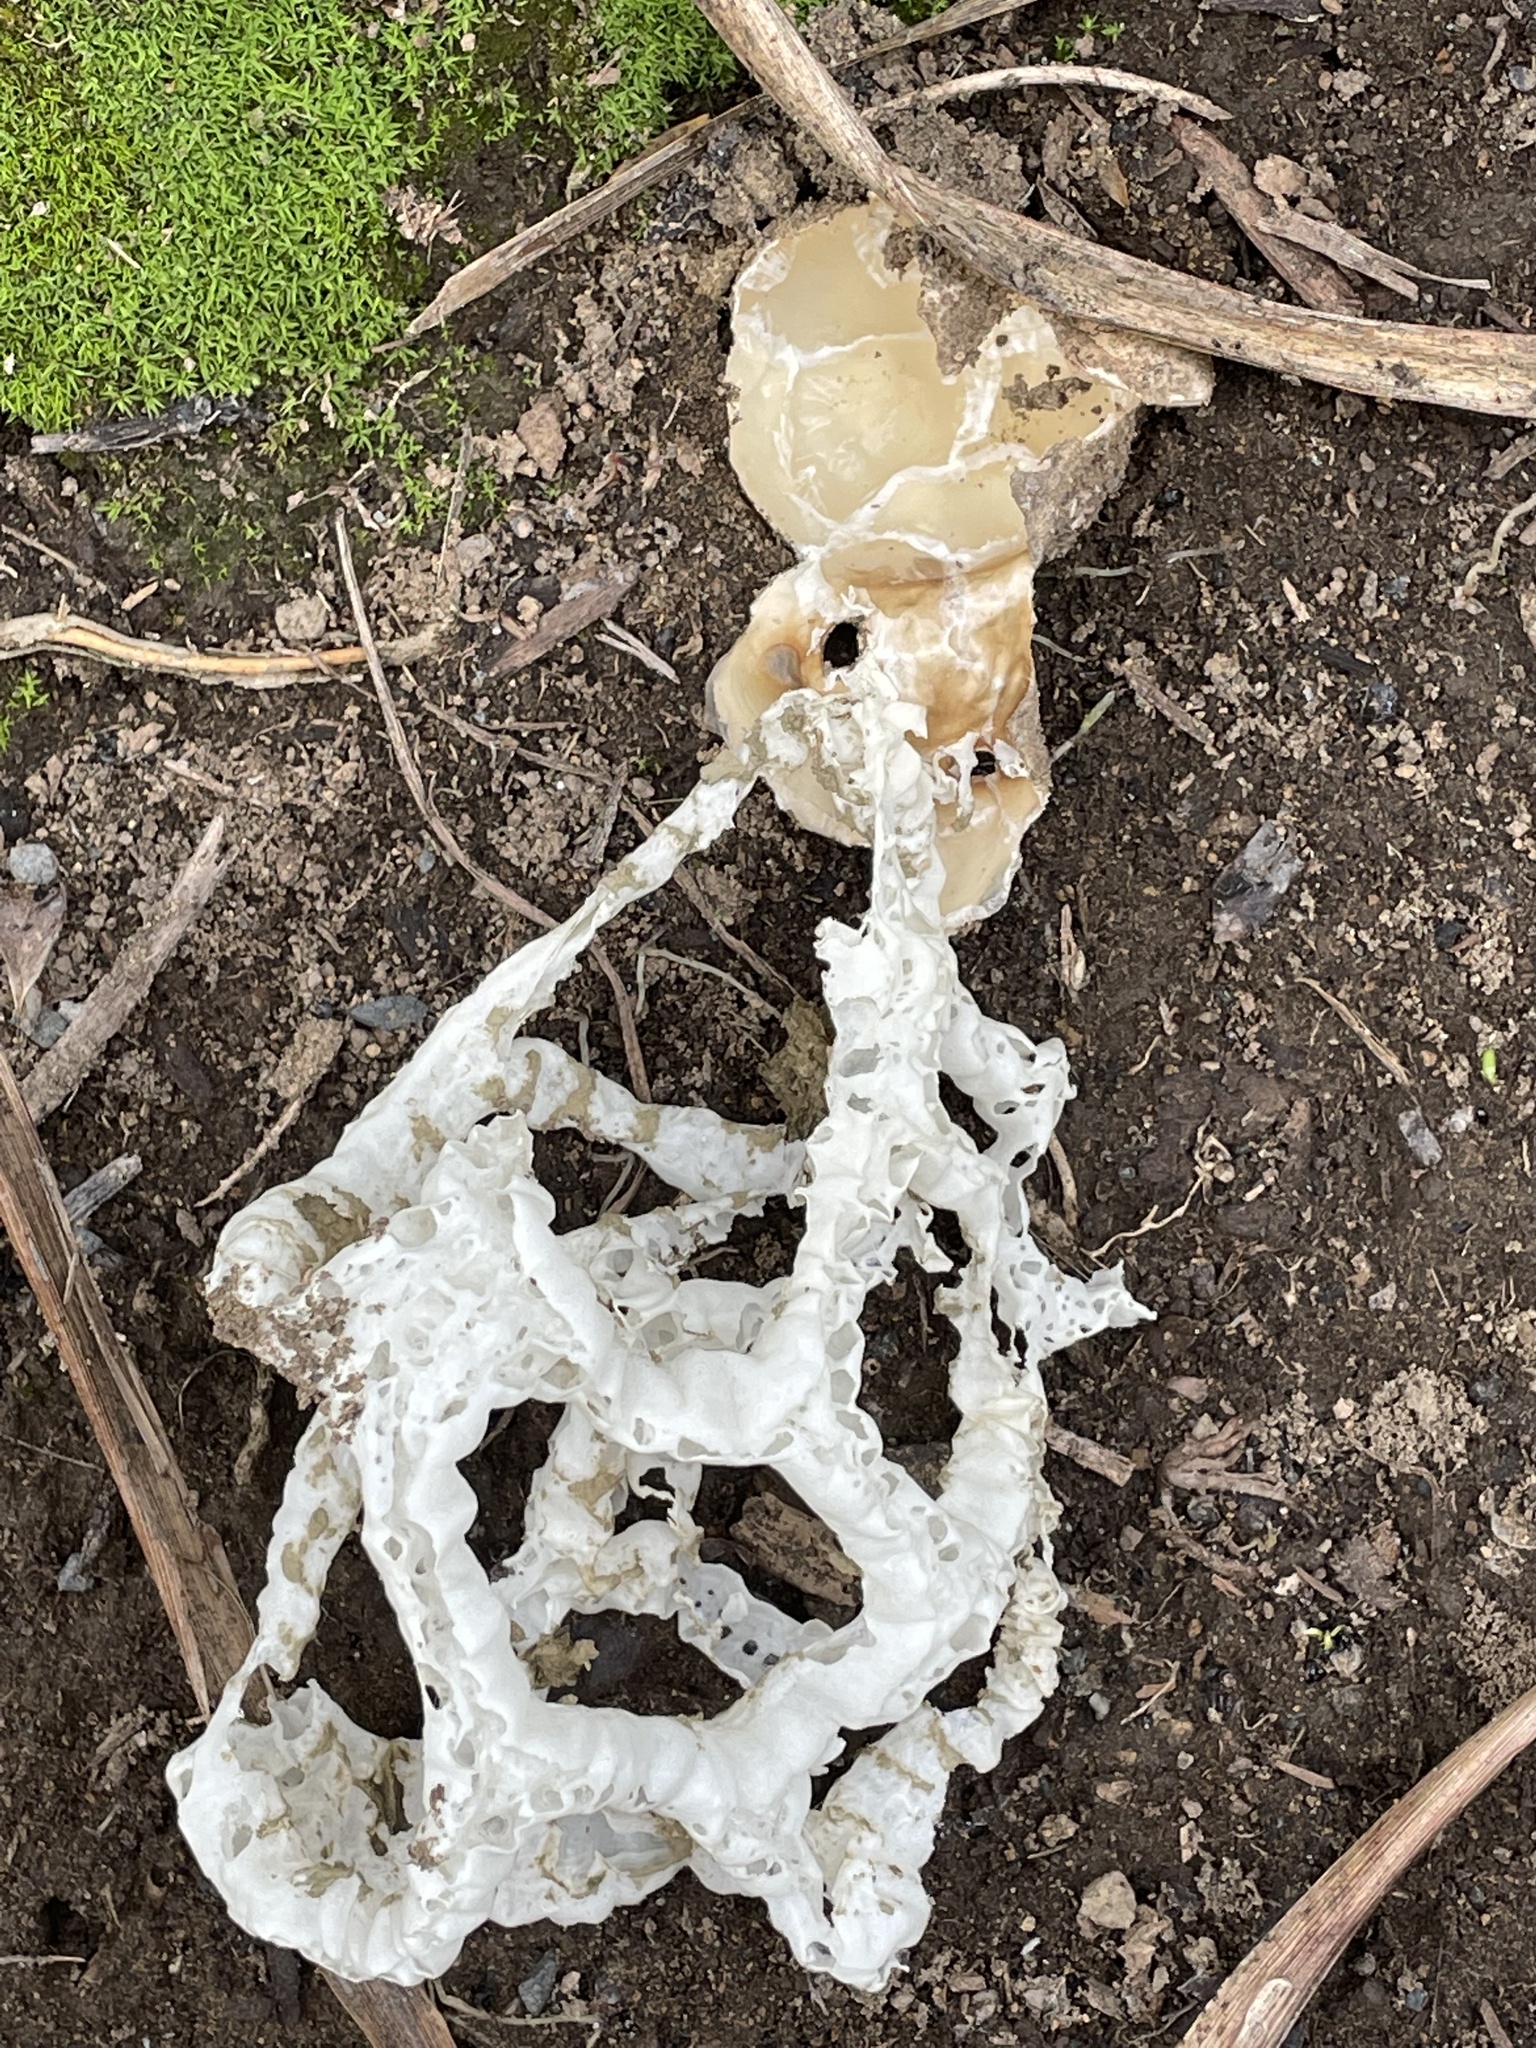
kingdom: Fungi
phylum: Basidiomycota
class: Agaricomycetes
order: Phallales
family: Phallaceae
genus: Ileodictyon
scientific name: Ileodictyon cibarium
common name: Basket fungus
